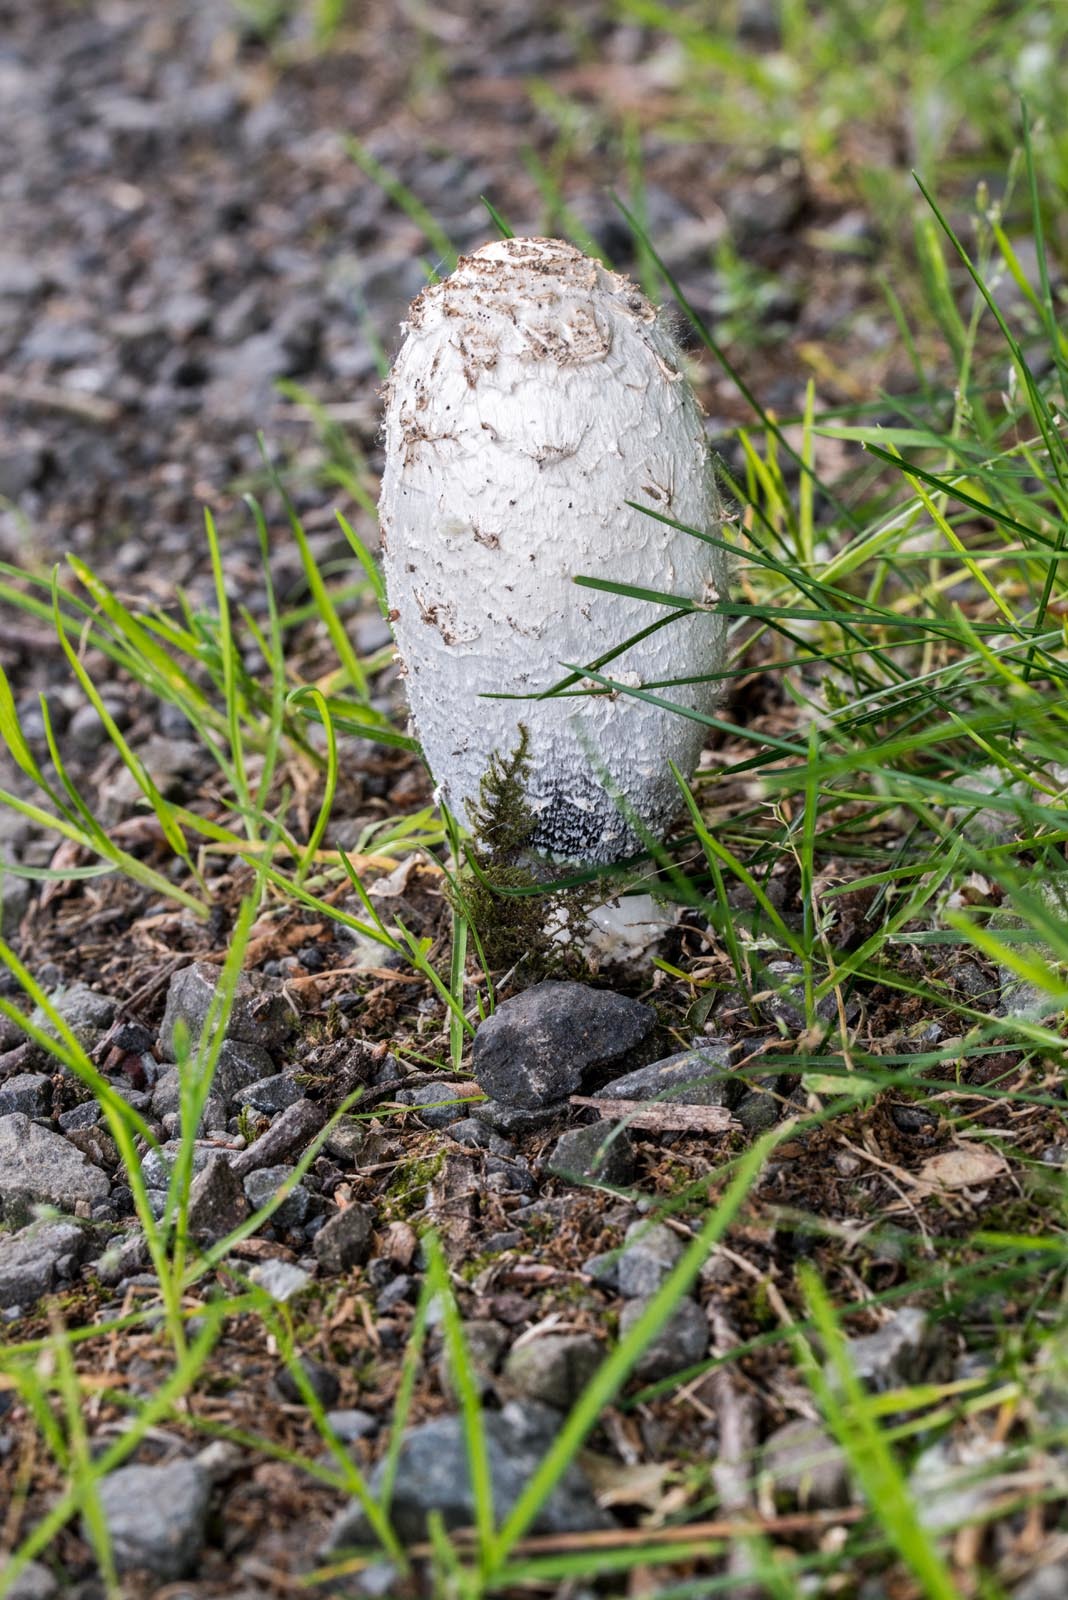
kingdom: Fungi
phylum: Basidiomycota
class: Agaricomycetes
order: Agaricales
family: Agaricaceae
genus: Coprinus
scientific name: Coprinus comatus
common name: Lawyer's wig
